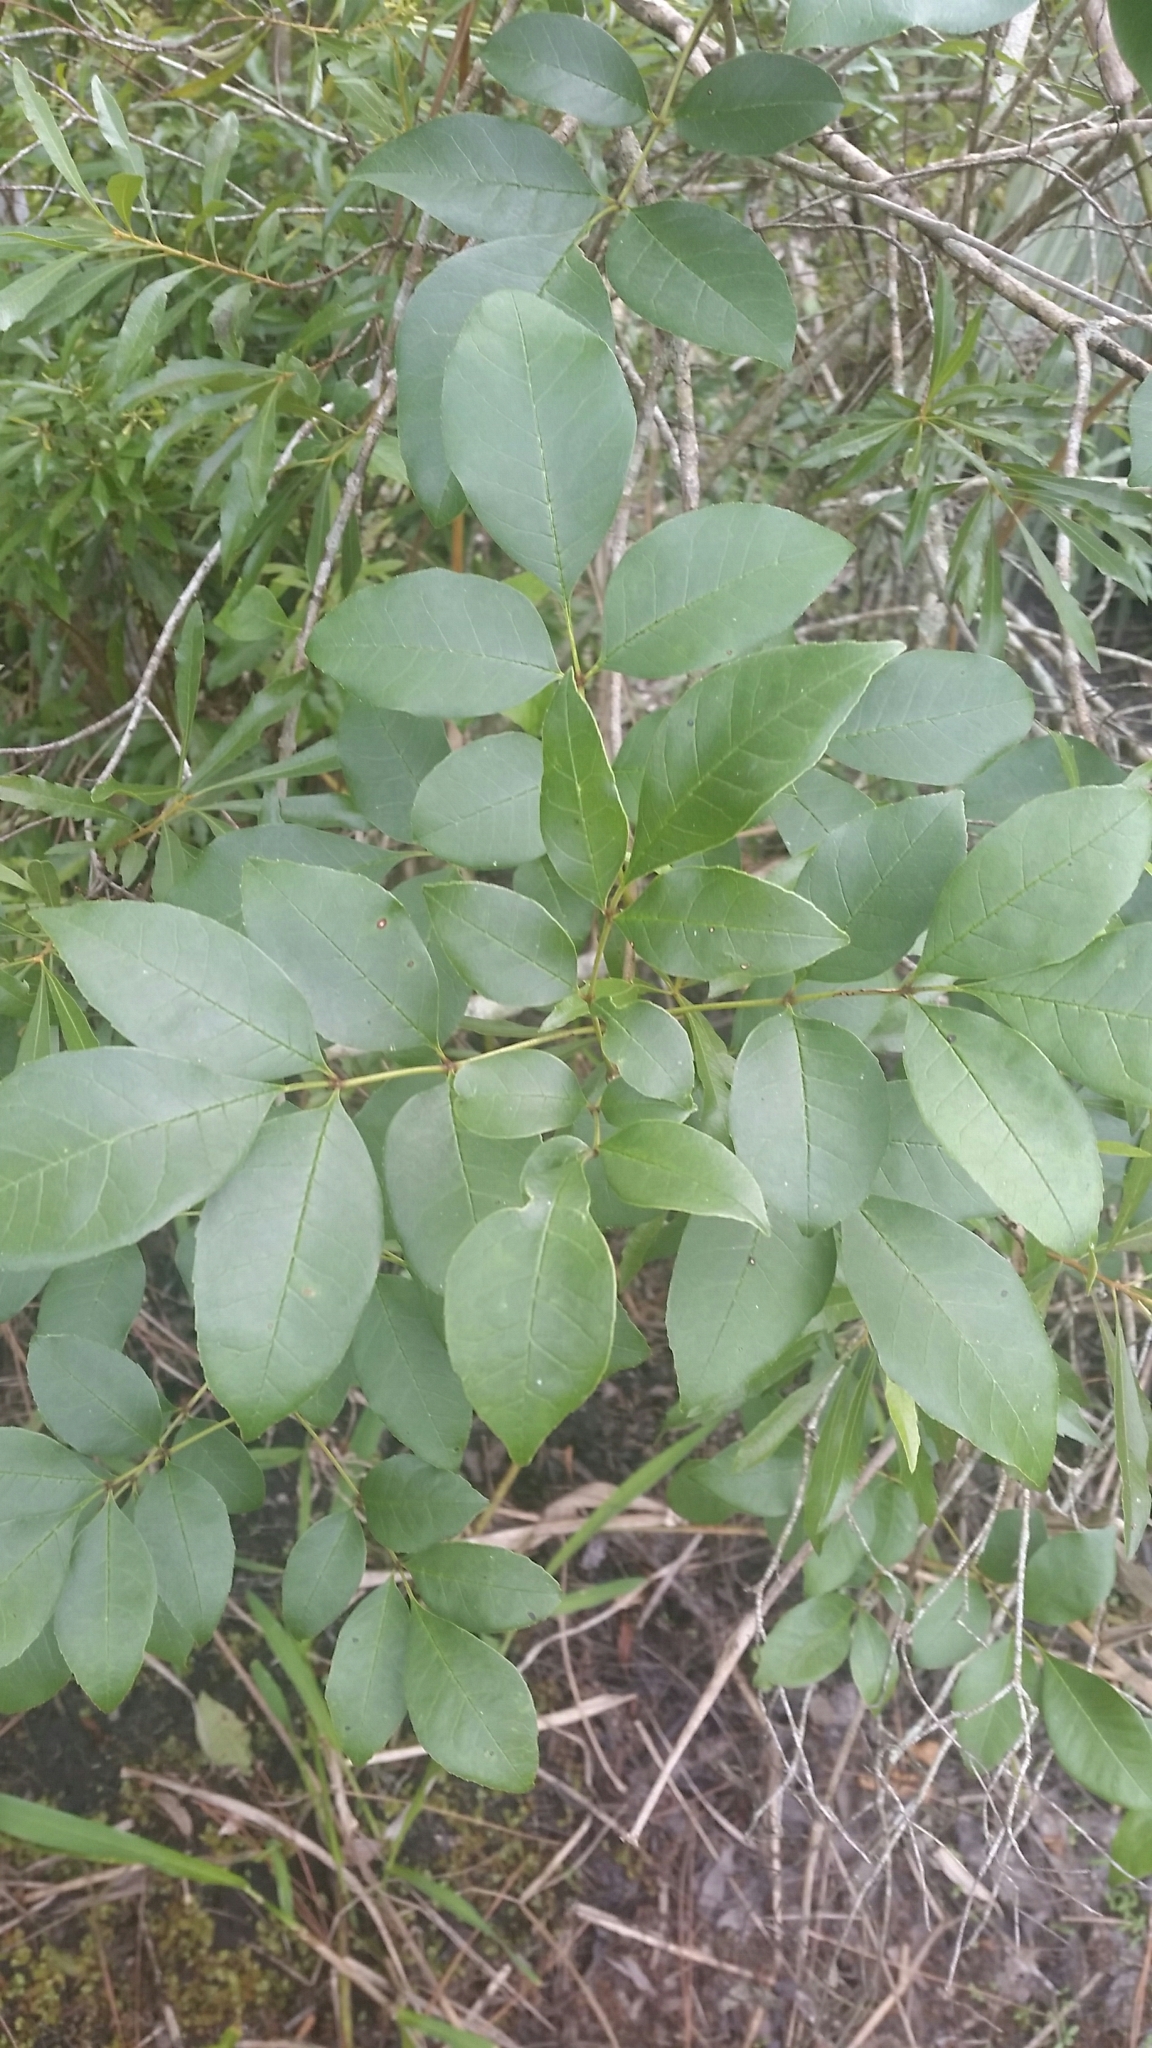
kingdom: Plantae
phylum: Tracheophyta
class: Magnoliopsida
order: Lamiales
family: Oleaceae
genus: Fraxinus
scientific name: Fraxinus caroliniana
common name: Carolina ash
